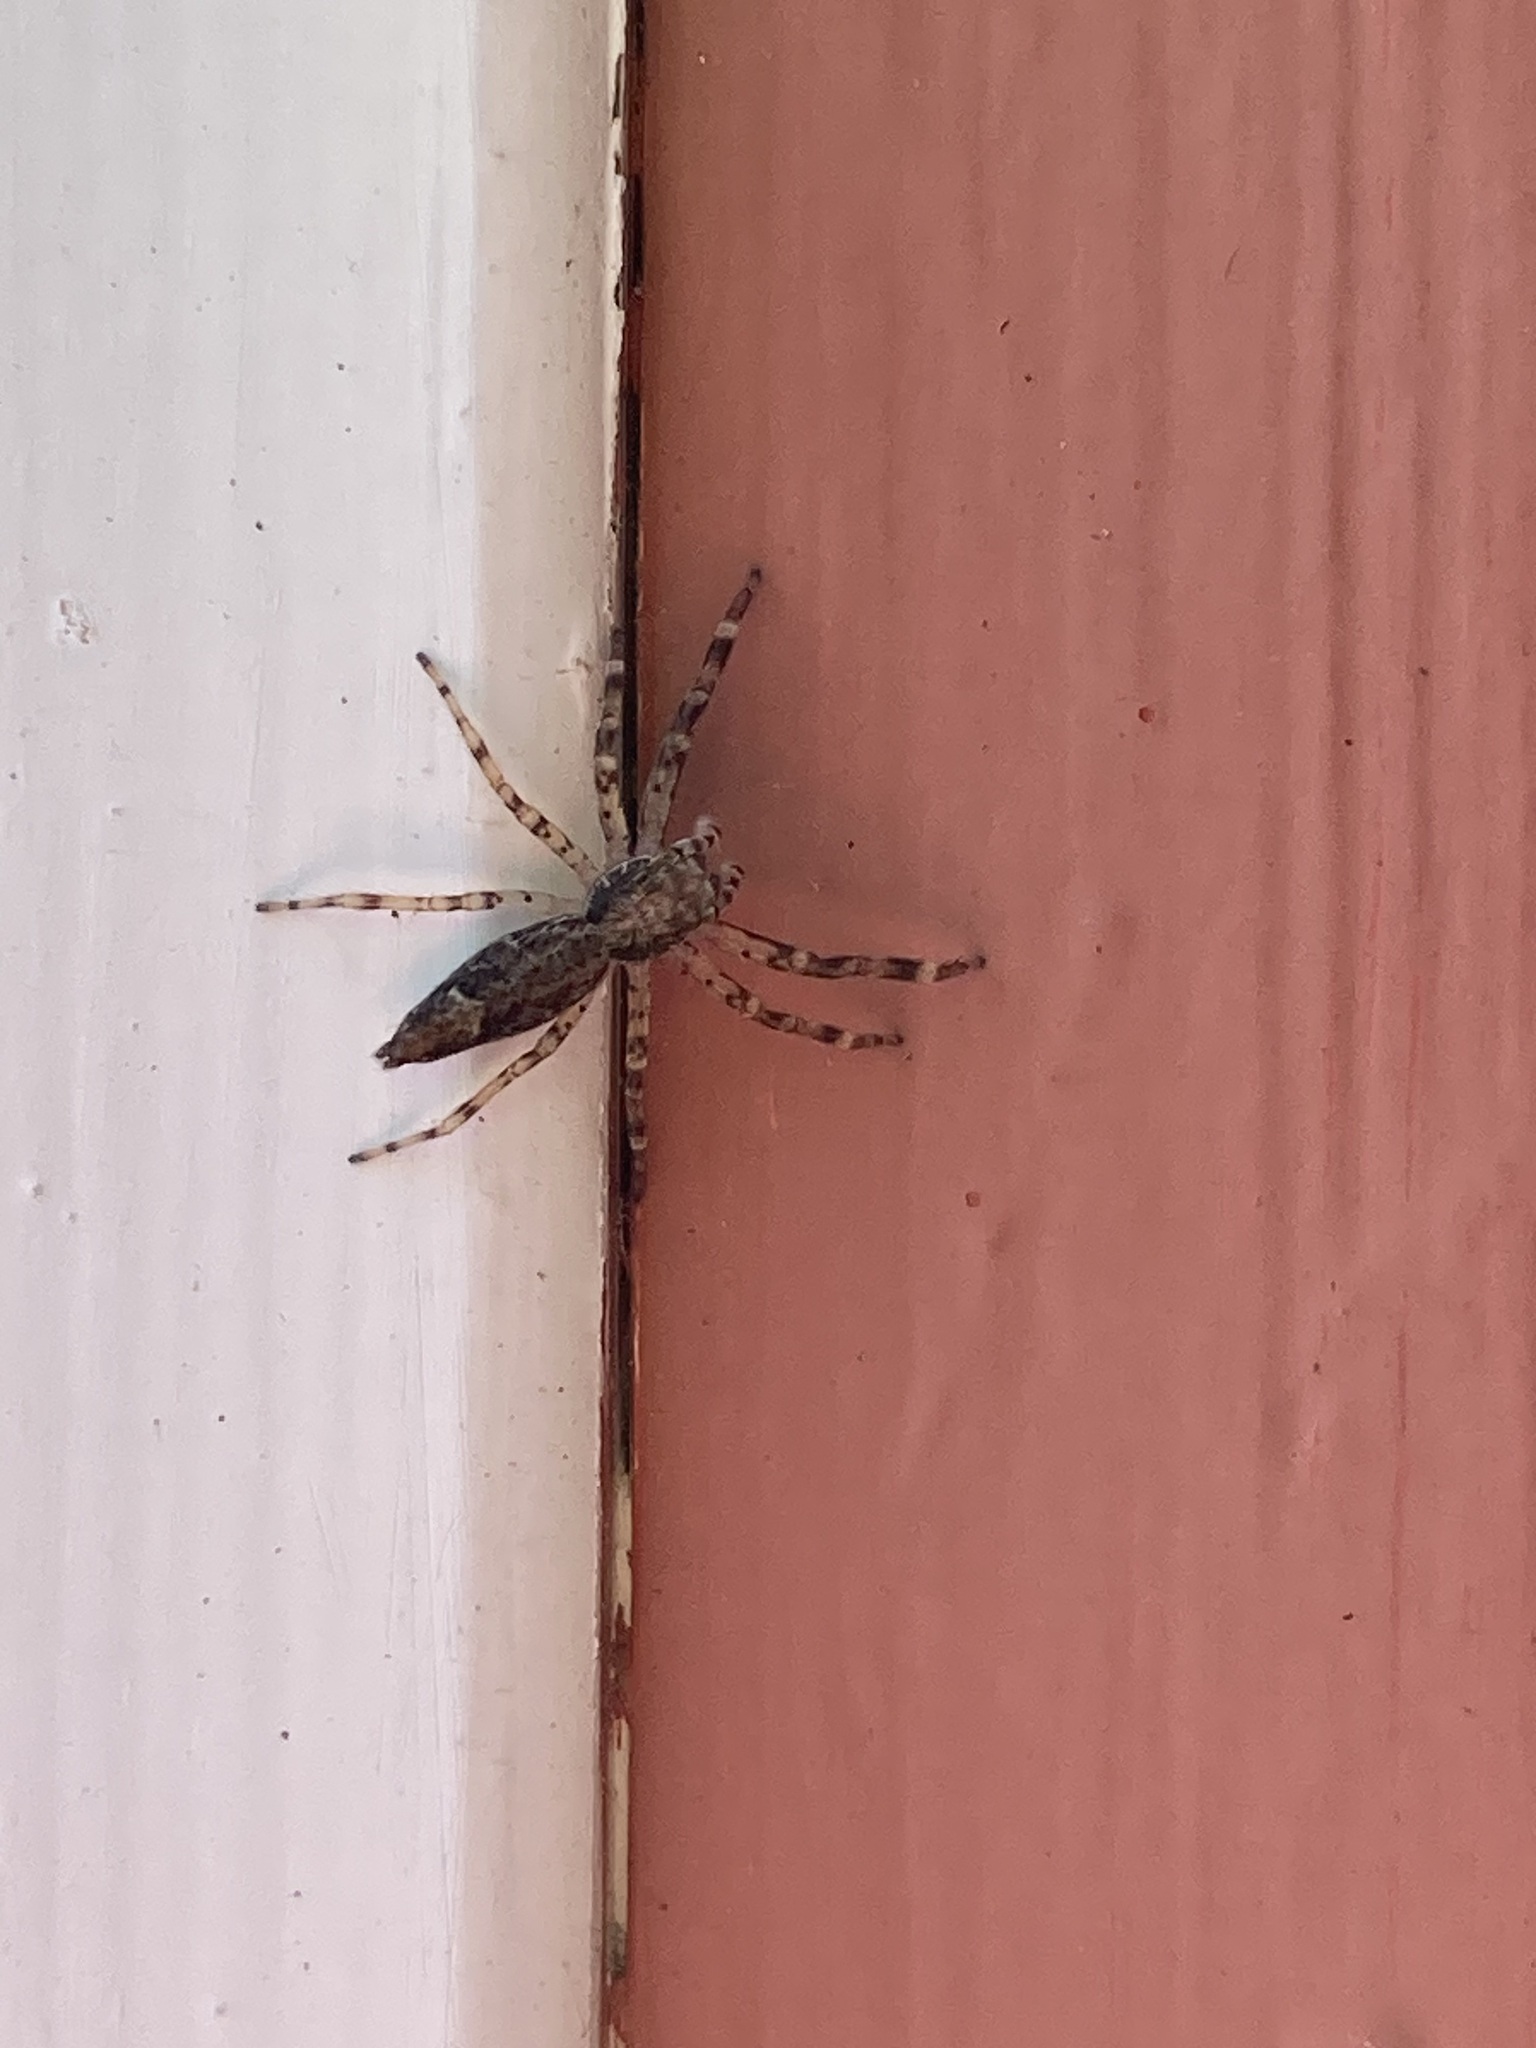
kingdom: Animalia
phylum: Arthropoda
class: Arachnida
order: Araneae
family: Salticidae
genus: Helpis
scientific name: Helpis minitabunda
